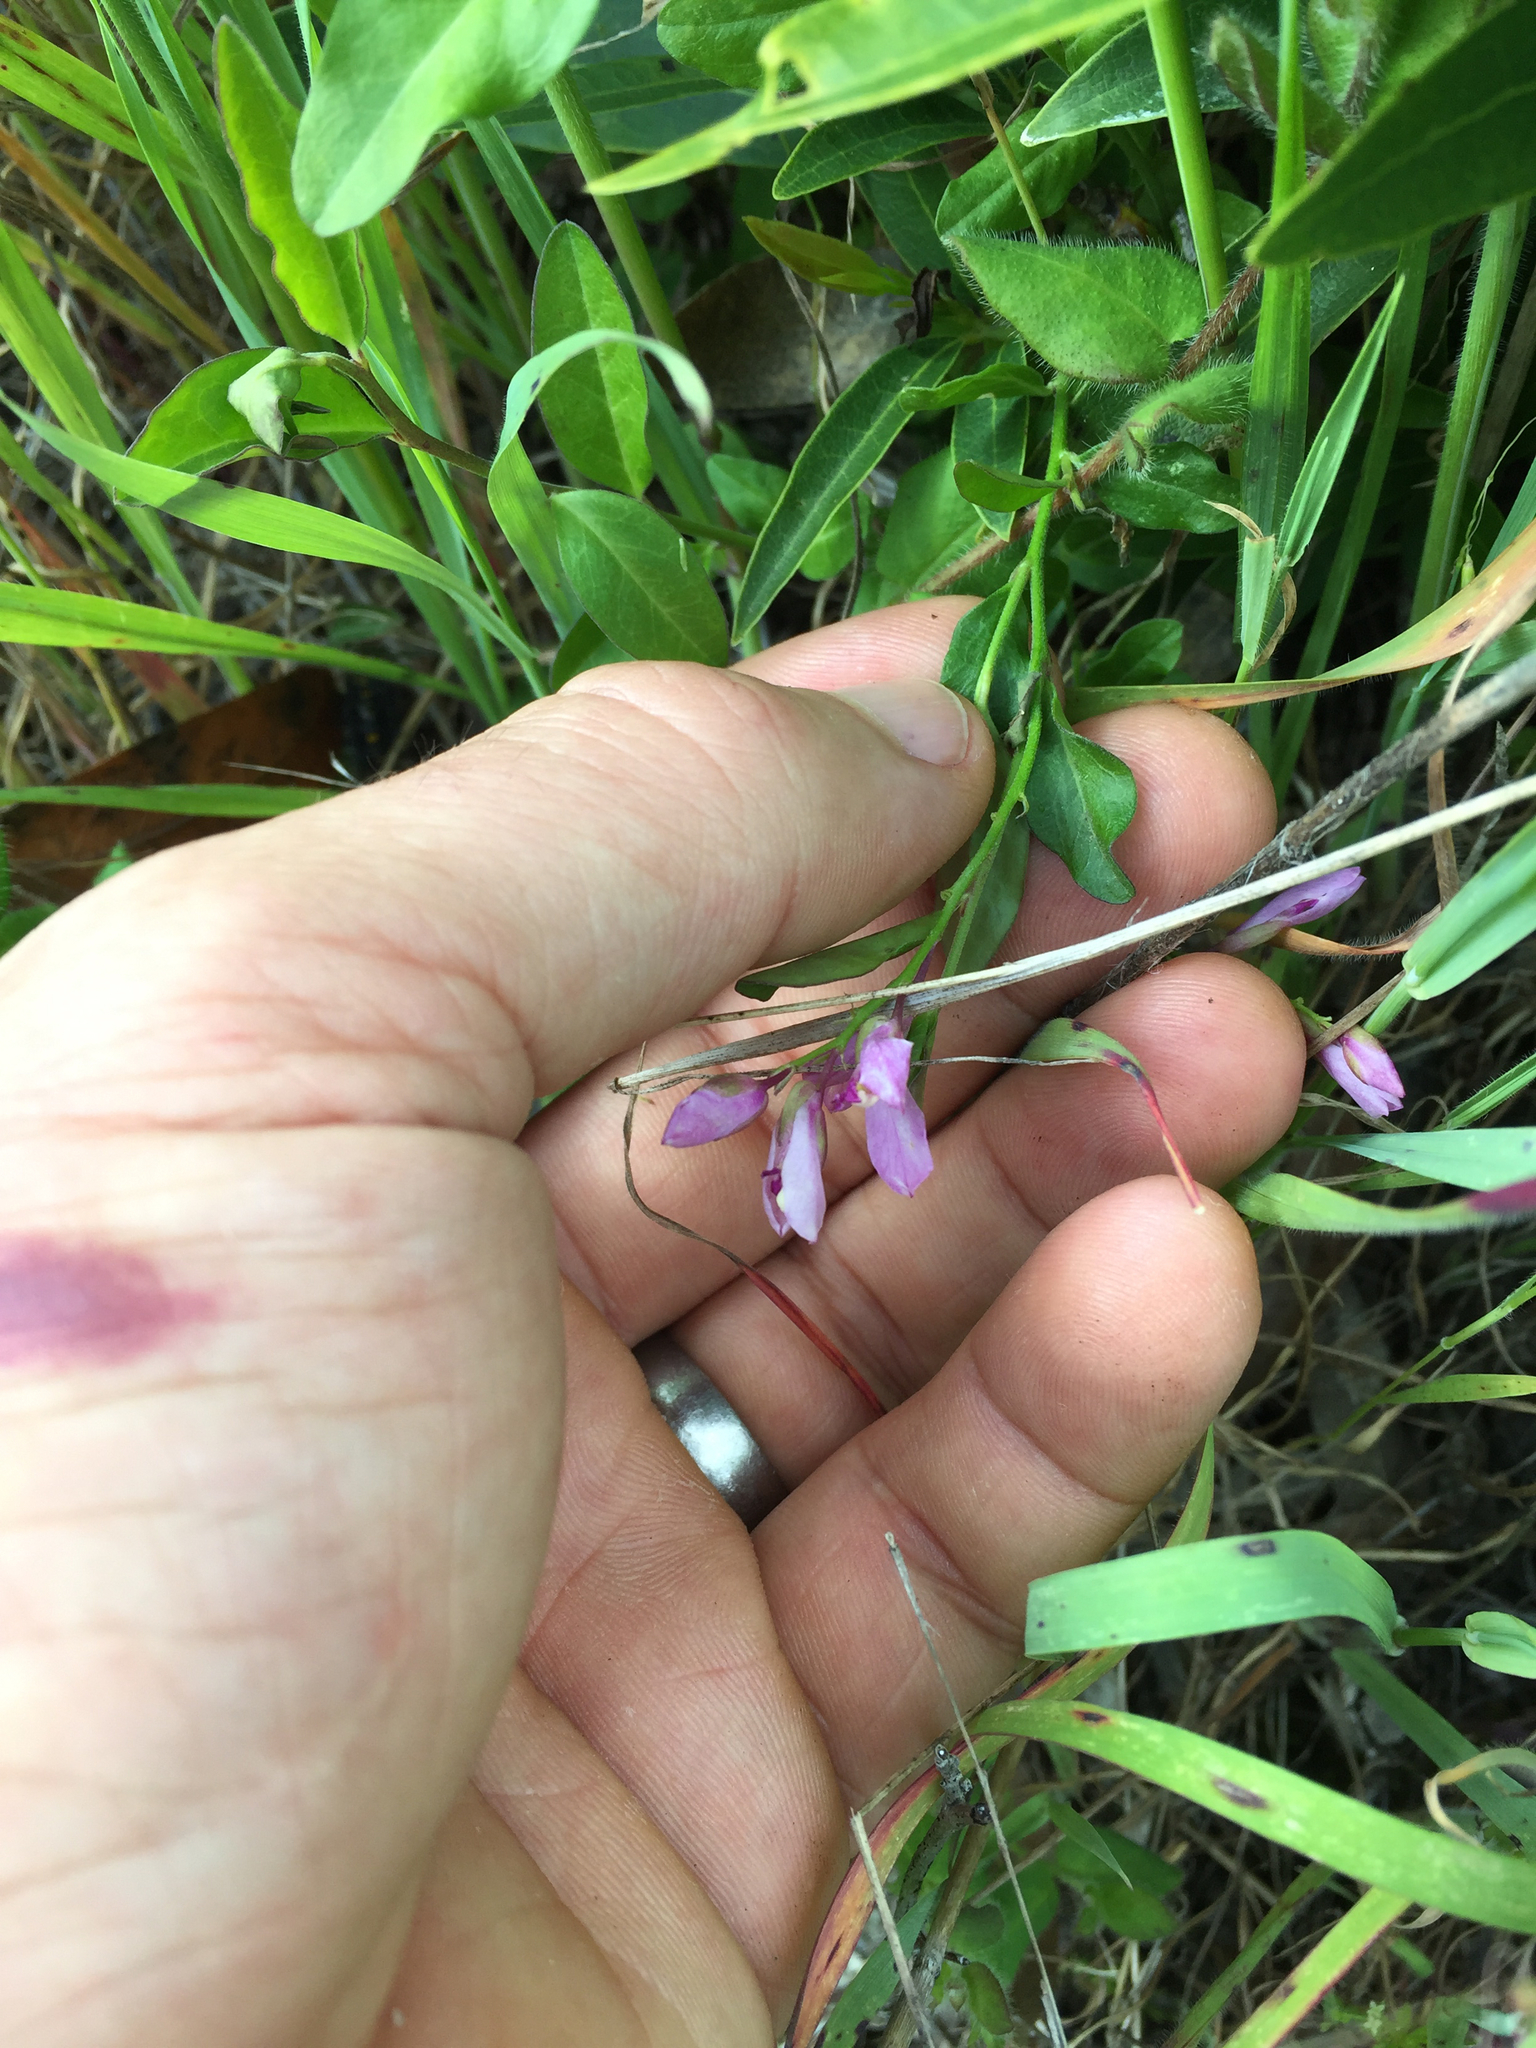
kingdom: Plantae
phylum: Tracheophyta
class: Magnoliopsida
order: Fabales
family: Polygalaceae
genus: Rhinotropis
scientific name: Rhinotropis californica
